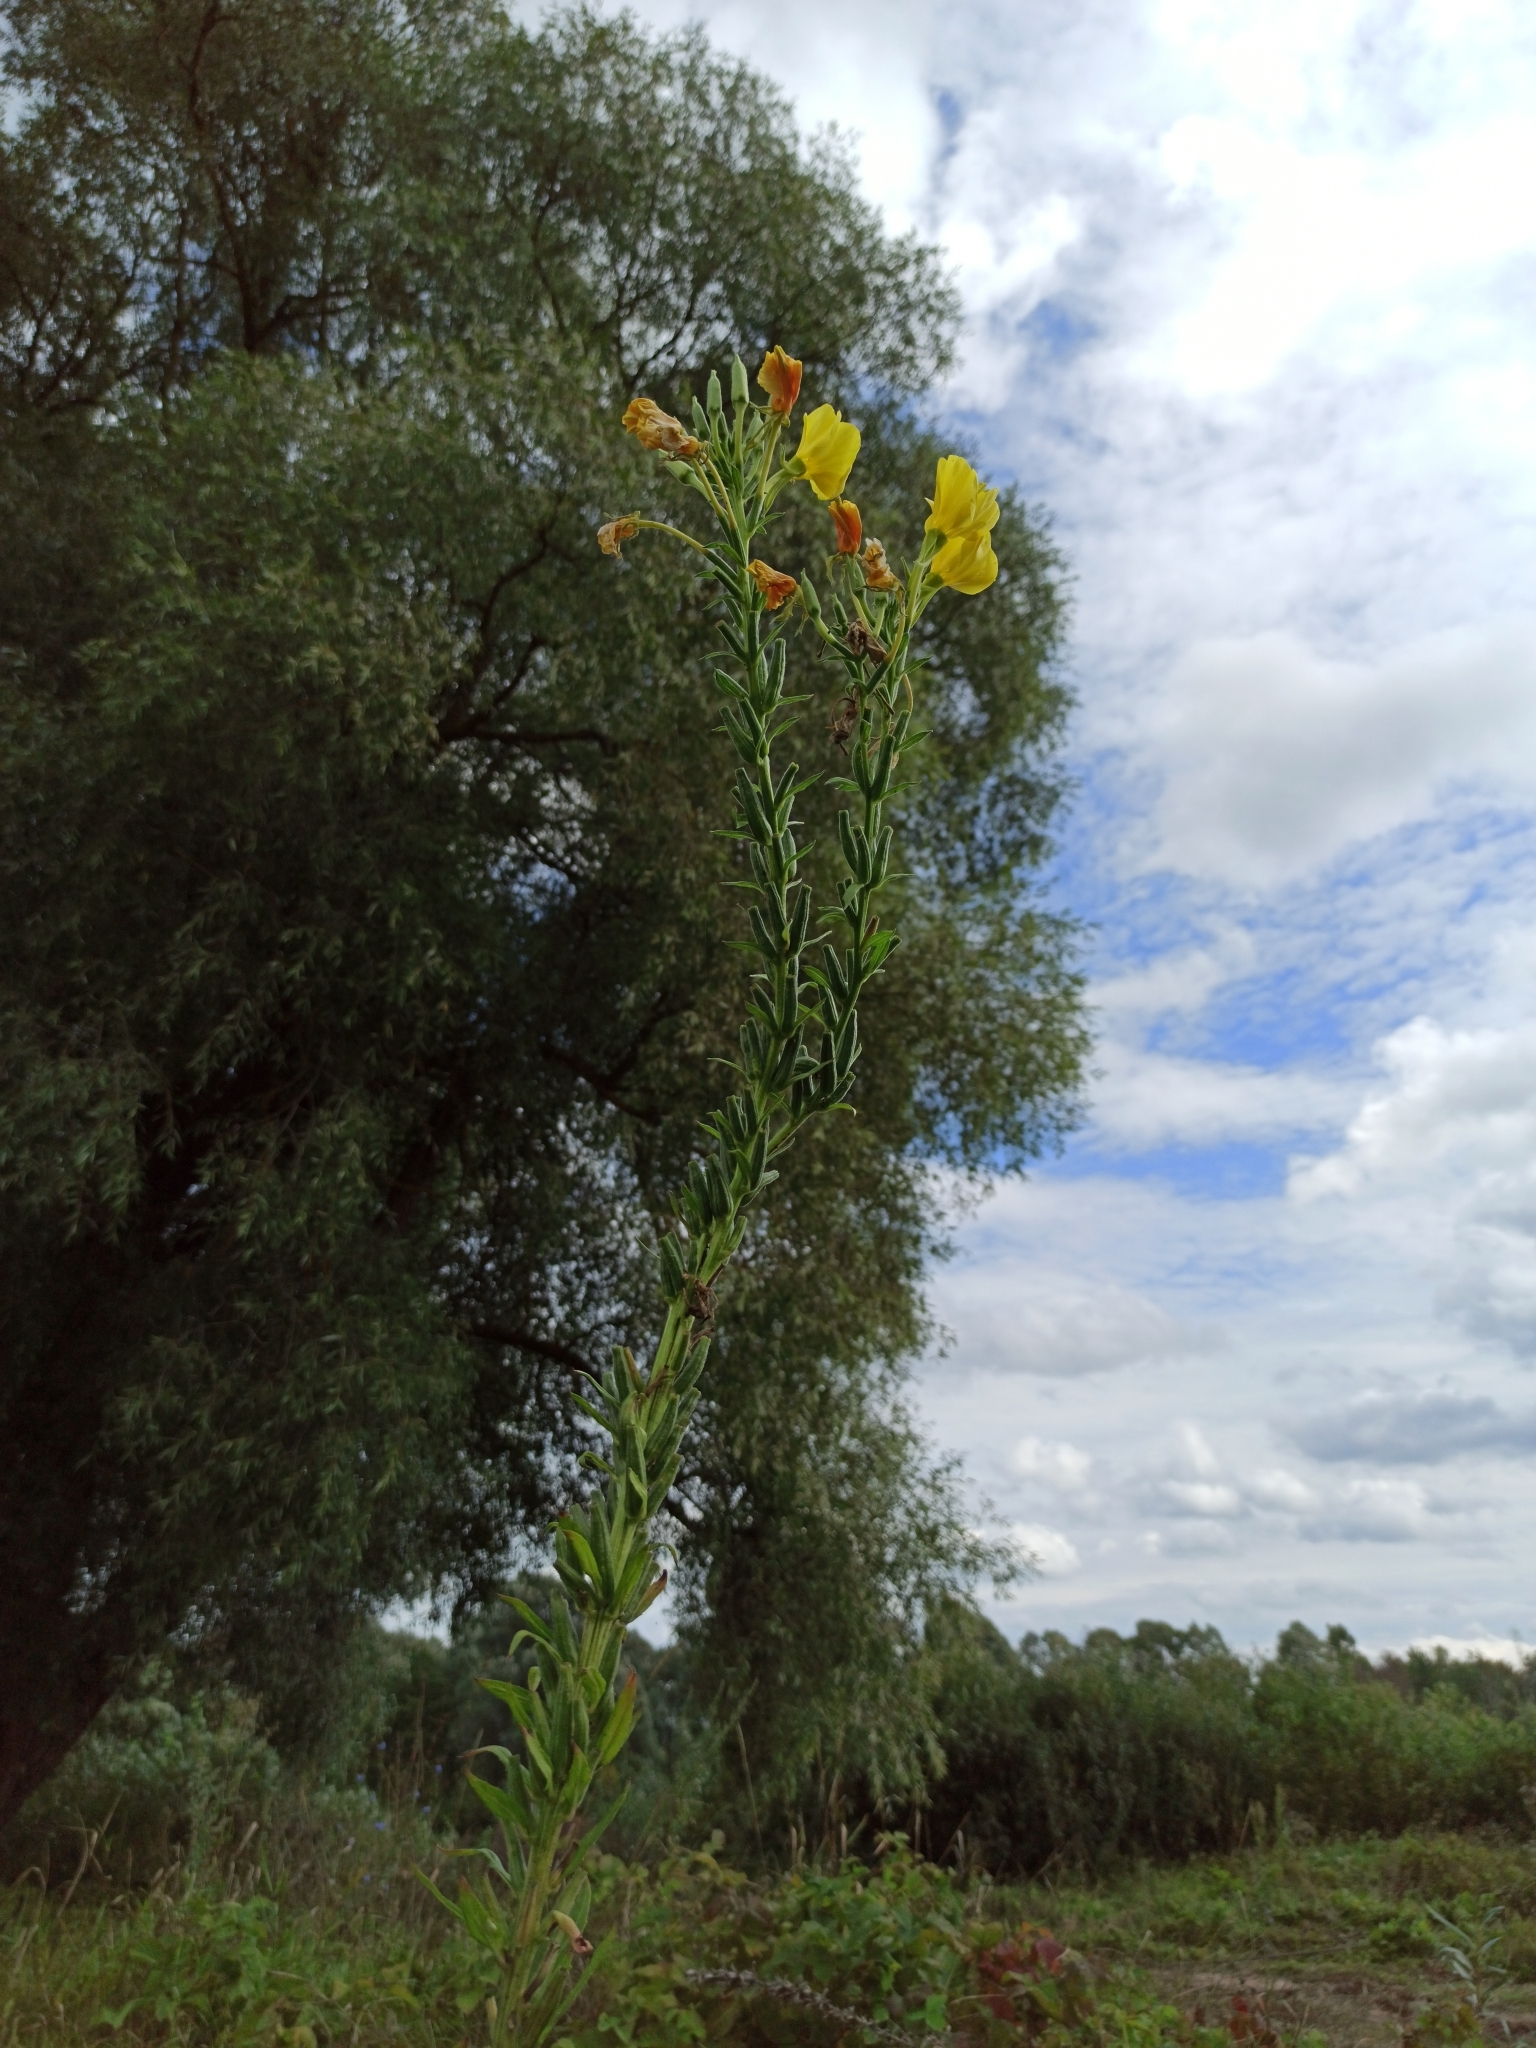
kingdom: Plantae
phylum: Tracheophyta
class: Magnoliopsida
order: Myrtales
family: Onagraceae
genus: Oenothera
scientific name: Oenothera biennis
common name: Common evening-primrose
